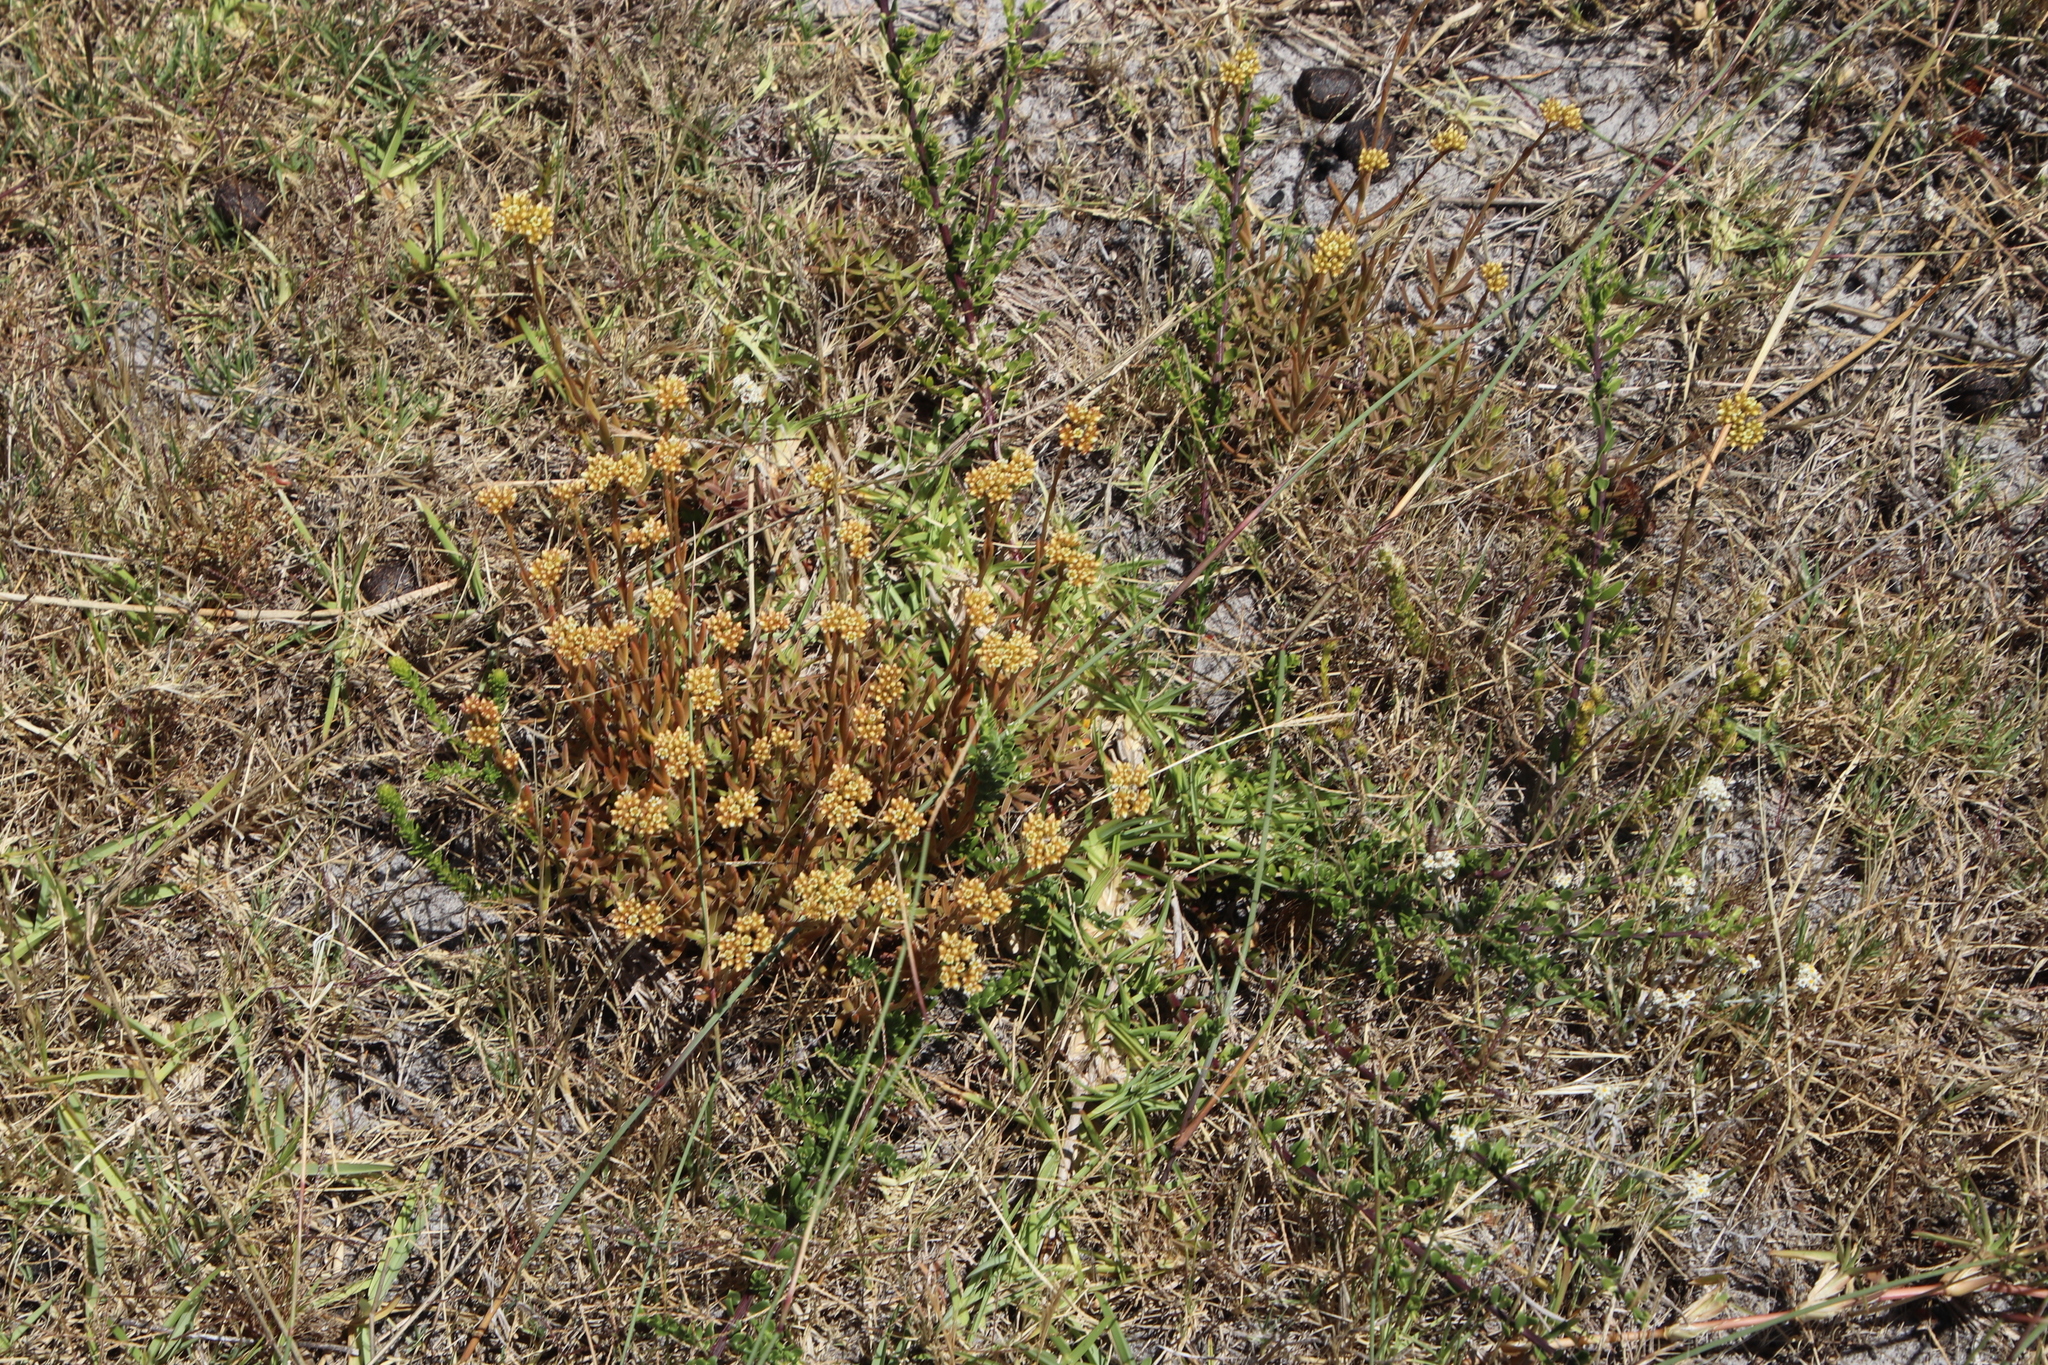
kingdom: Plantae
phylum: Tracheophyta
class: Magnoliopsida
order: Saxifragales
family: Crassulaceae
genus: Crassula
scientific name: Crassula fascicularis
